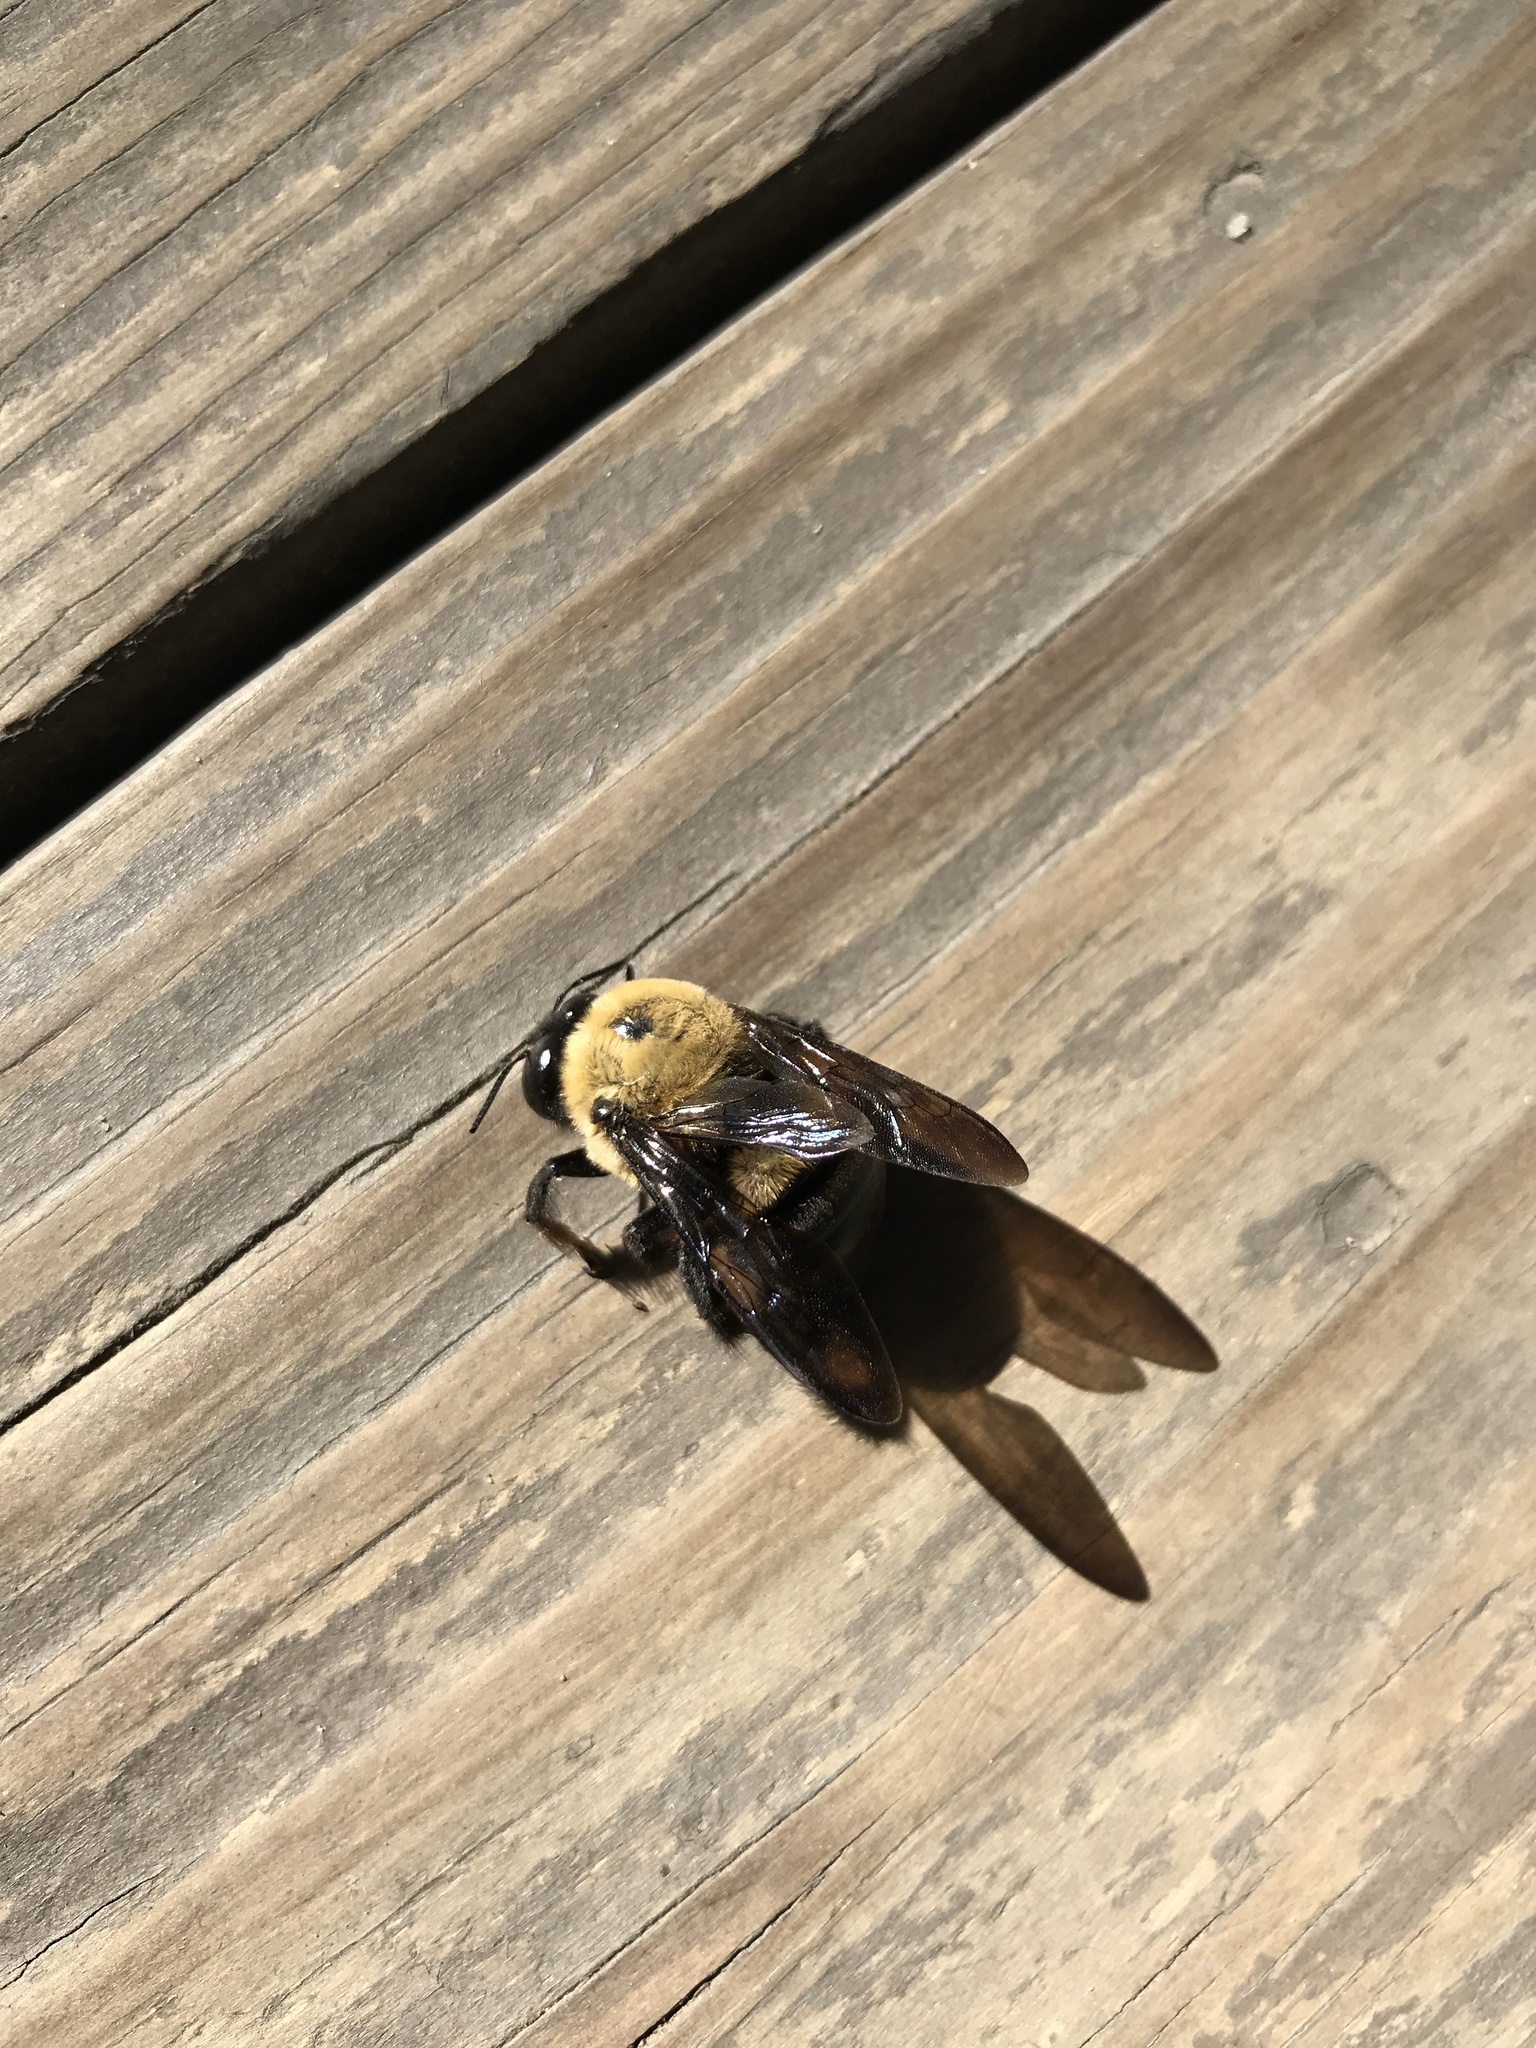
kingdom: Animalia
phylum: Arthropoda
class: Insecta
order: Hymenoptera
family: Apidae
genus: Xylocopa
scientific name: Xylocopa virginica
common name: Carpenter bee
